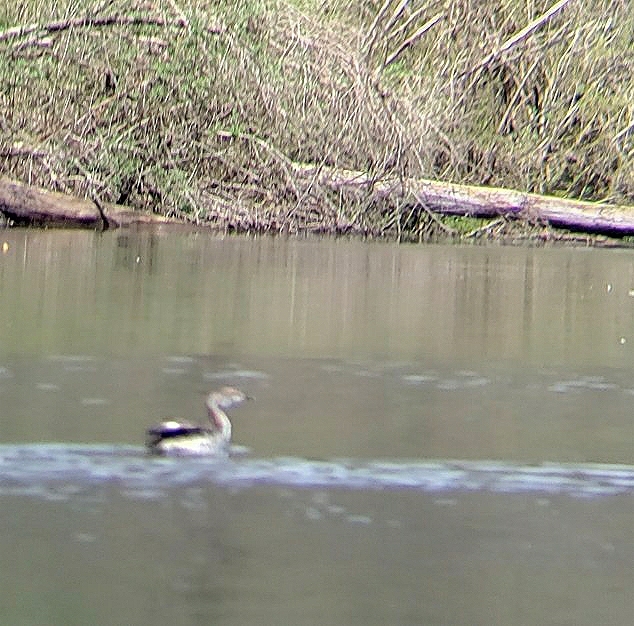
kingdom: Animalia
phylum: Chordata
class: Aves
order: Podicipediformes
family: Podicipedidae
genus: Podiceps
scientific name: Podiceps auritus
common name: Horned grebe
